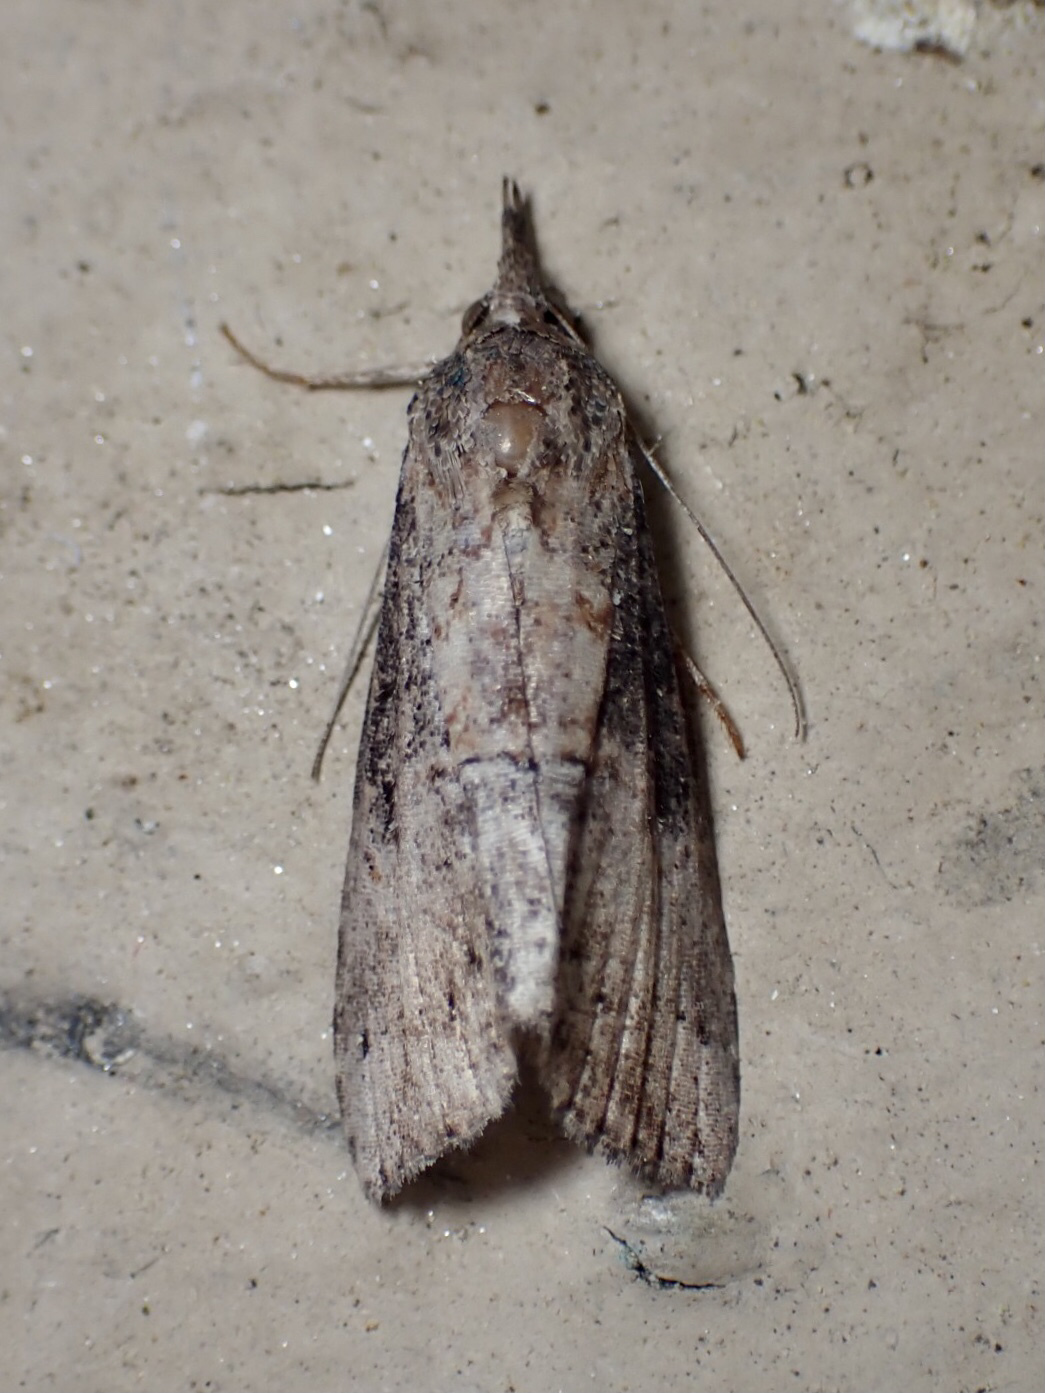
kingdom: Animalia
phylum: Arthropoda
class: Insecta
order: Lepidoptera
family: Erebidae
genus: Hypena
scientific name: Hypena scabra
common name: Green cloverworm
